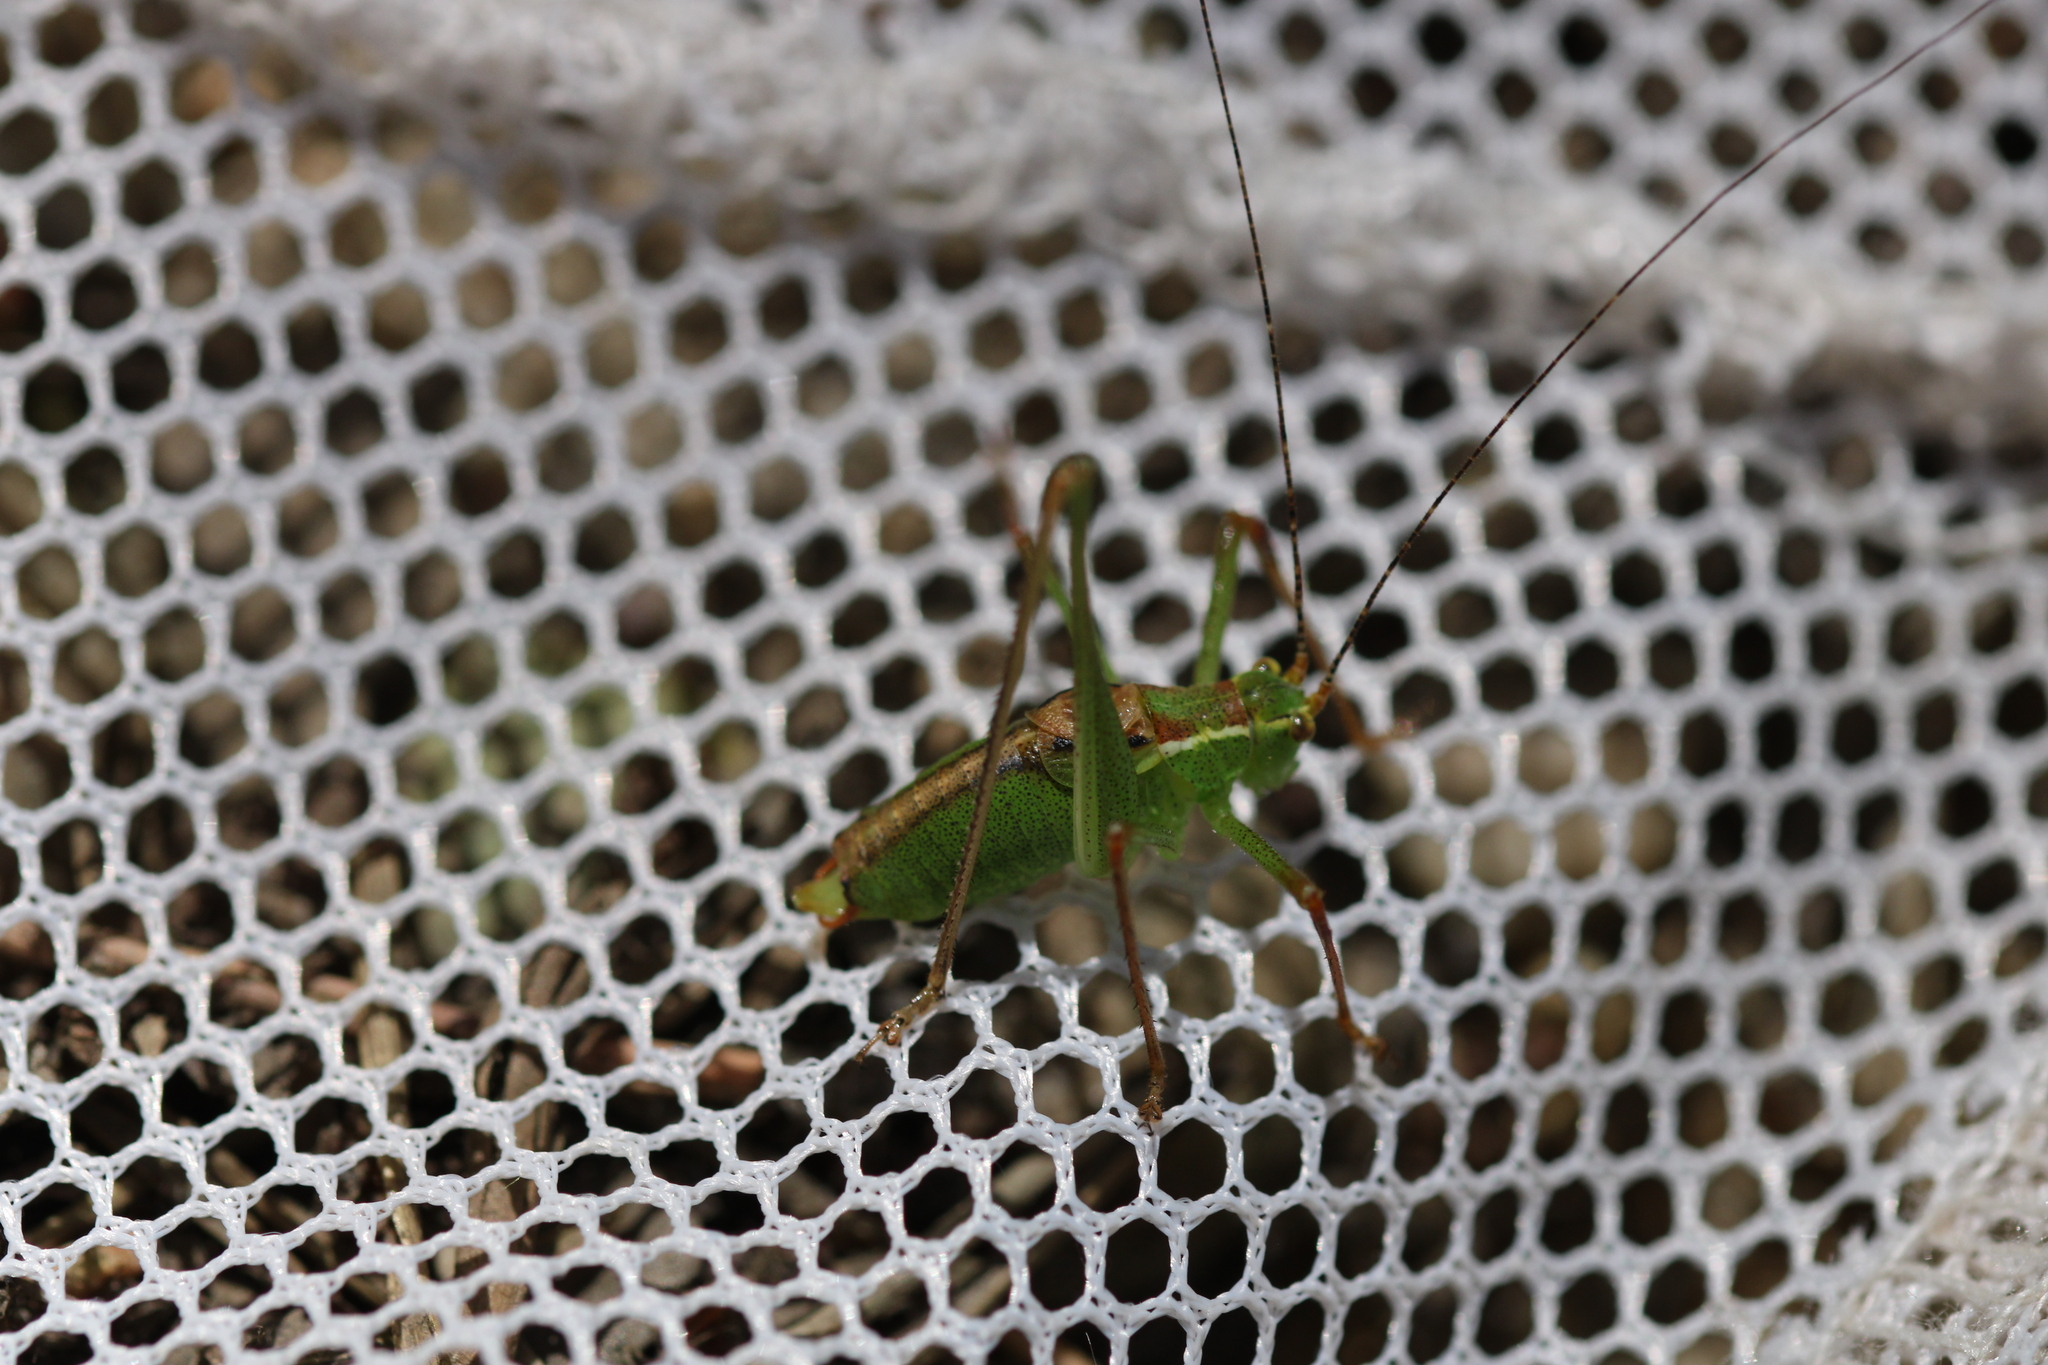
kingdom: Animalia
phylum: Arthropoda
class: Insecta
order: Orthoptera
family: Tettigoniidae
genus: Leptophyes
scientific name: Leptophyes punctatissima
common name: Speckled bush-cricket
